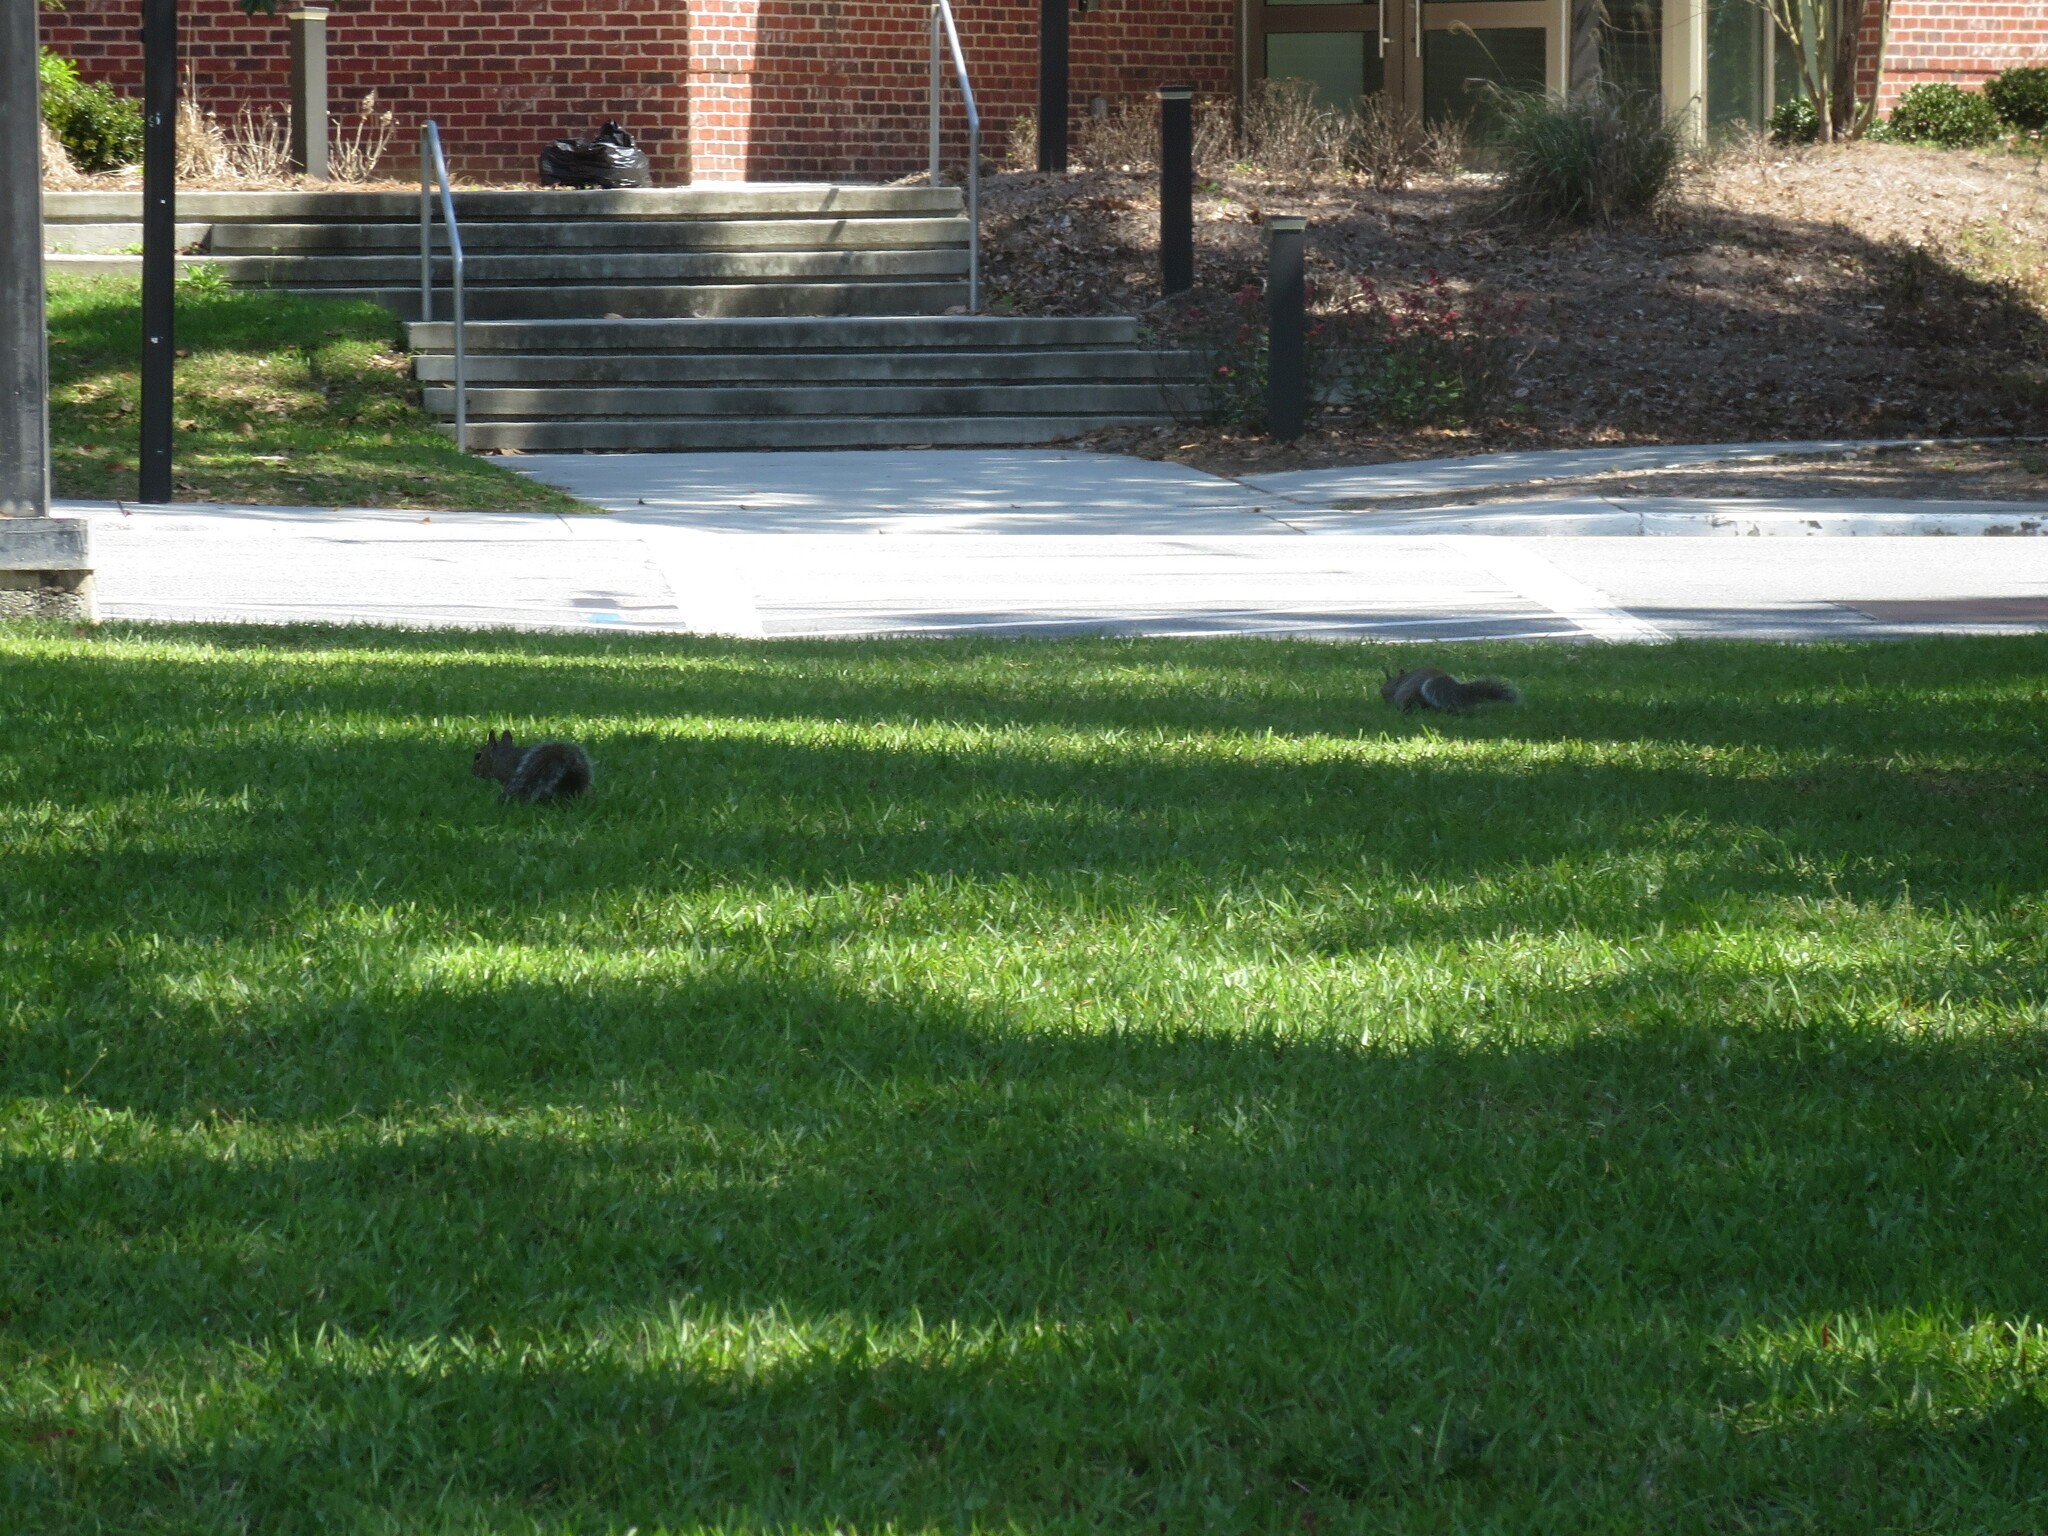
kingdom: Animalia
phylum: Chordata
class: Mammalia
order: Rodentia
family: Sciuridae
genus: Sciurus
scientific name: Sciurus carolinensis
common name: Eastern gray squirrel
